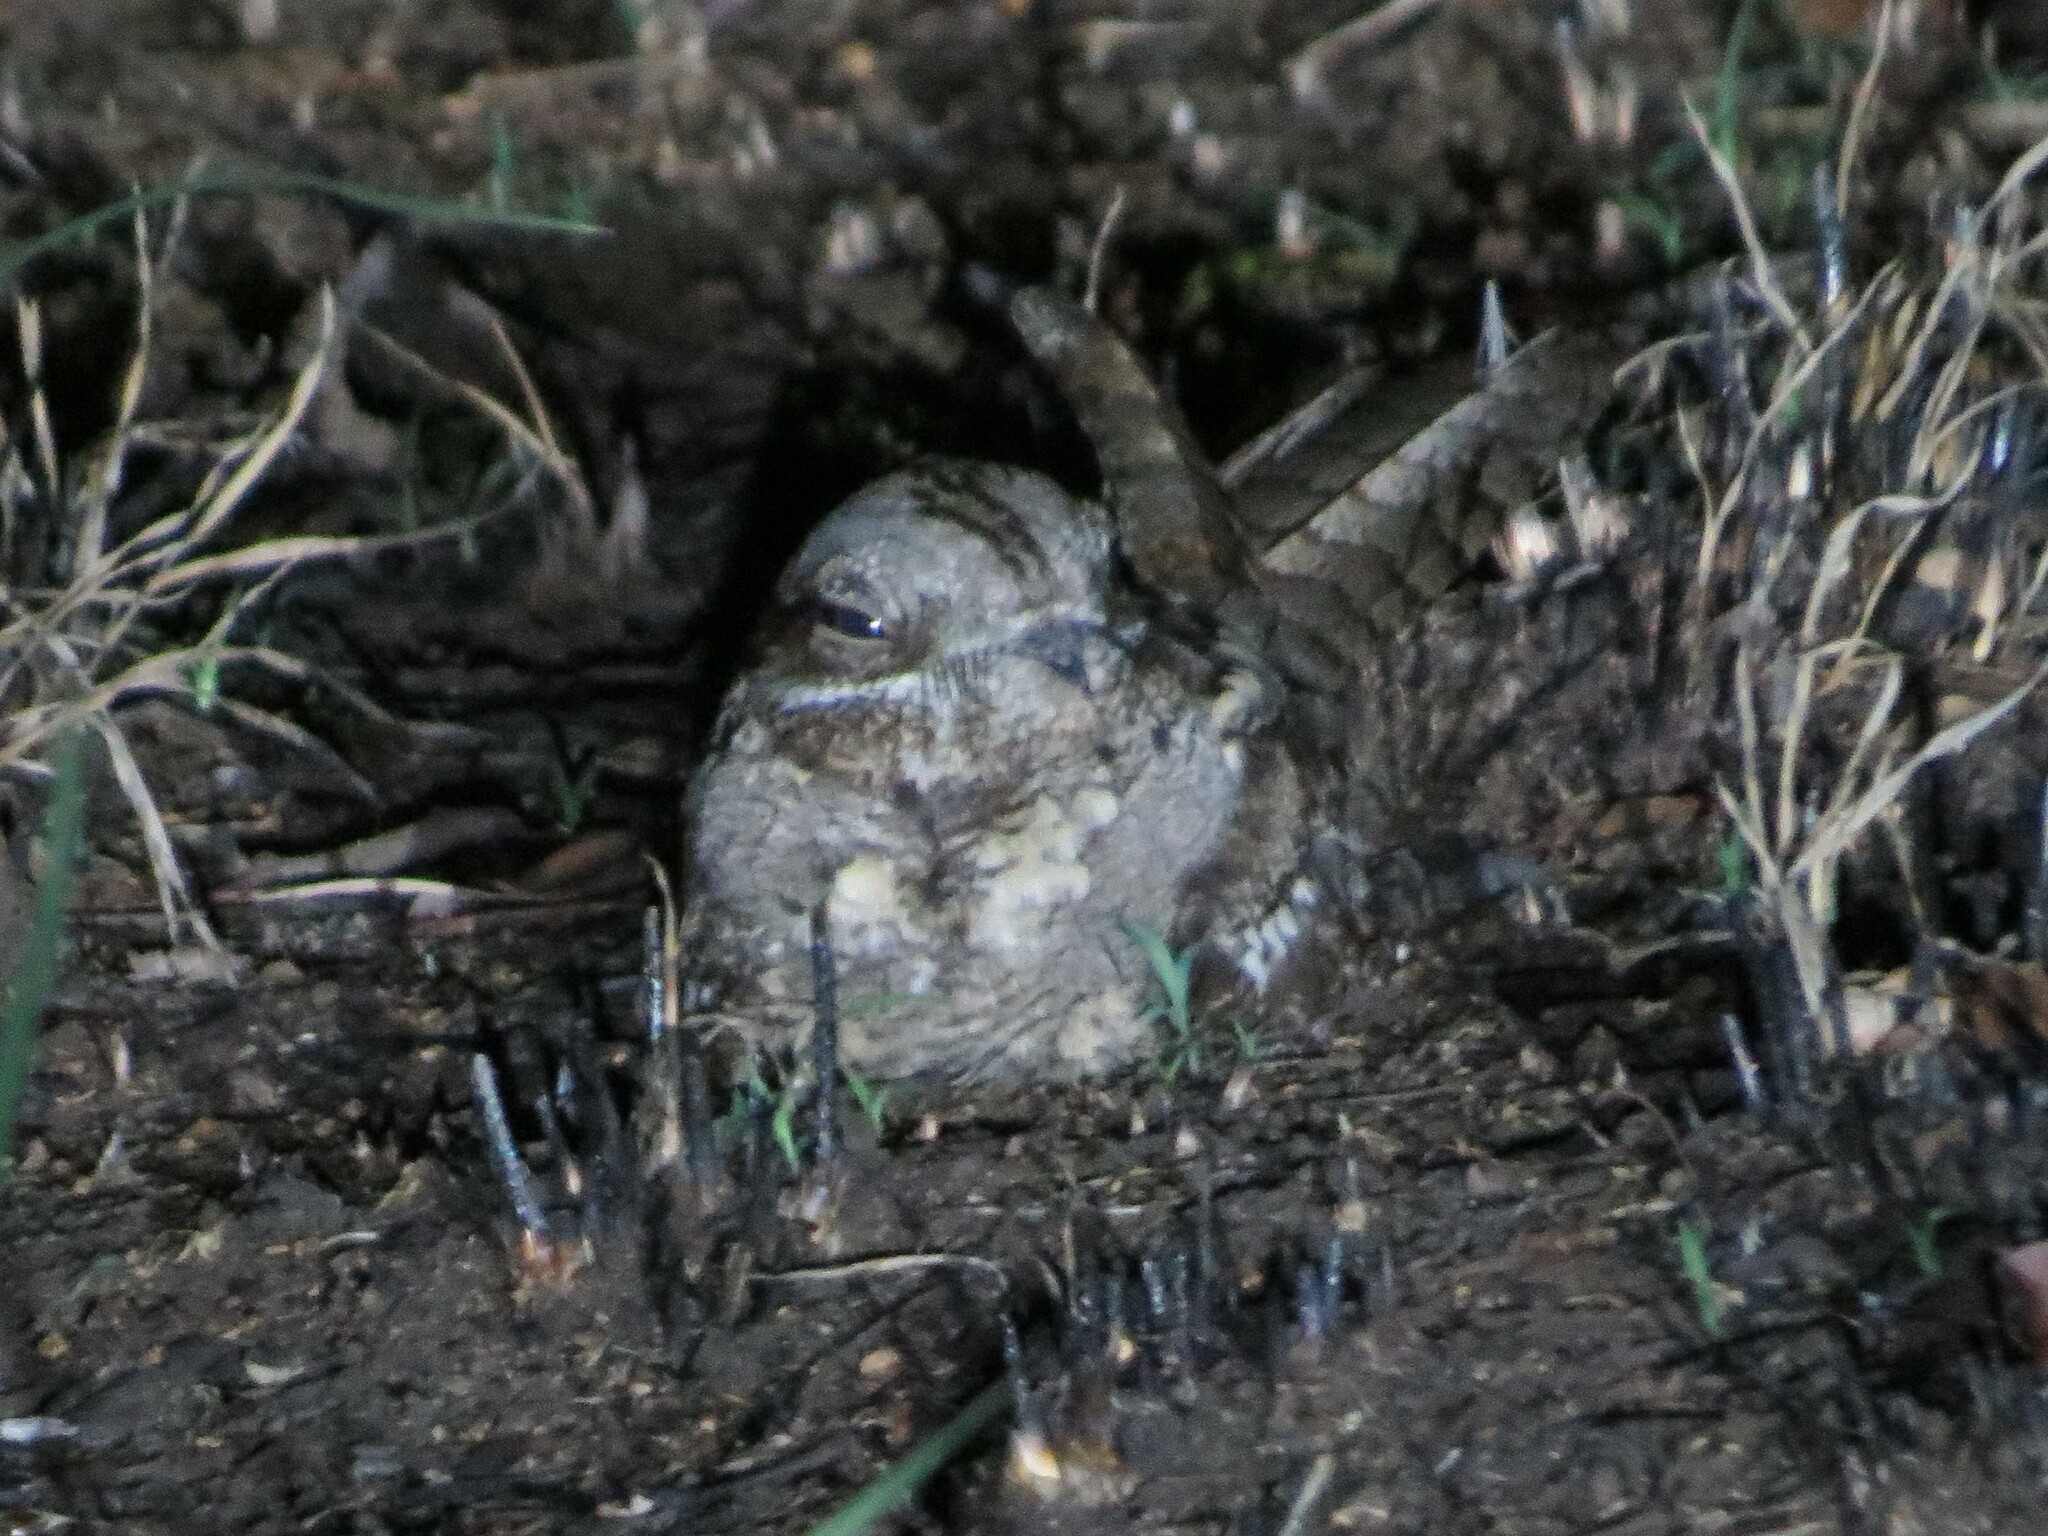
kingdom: Animalia
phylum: Chordata
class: Aves
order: Caprimulgiformes
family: Caprimulgidae
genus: Caprimulgus
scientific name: Caprimulgus europaeus
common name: European nightjar
